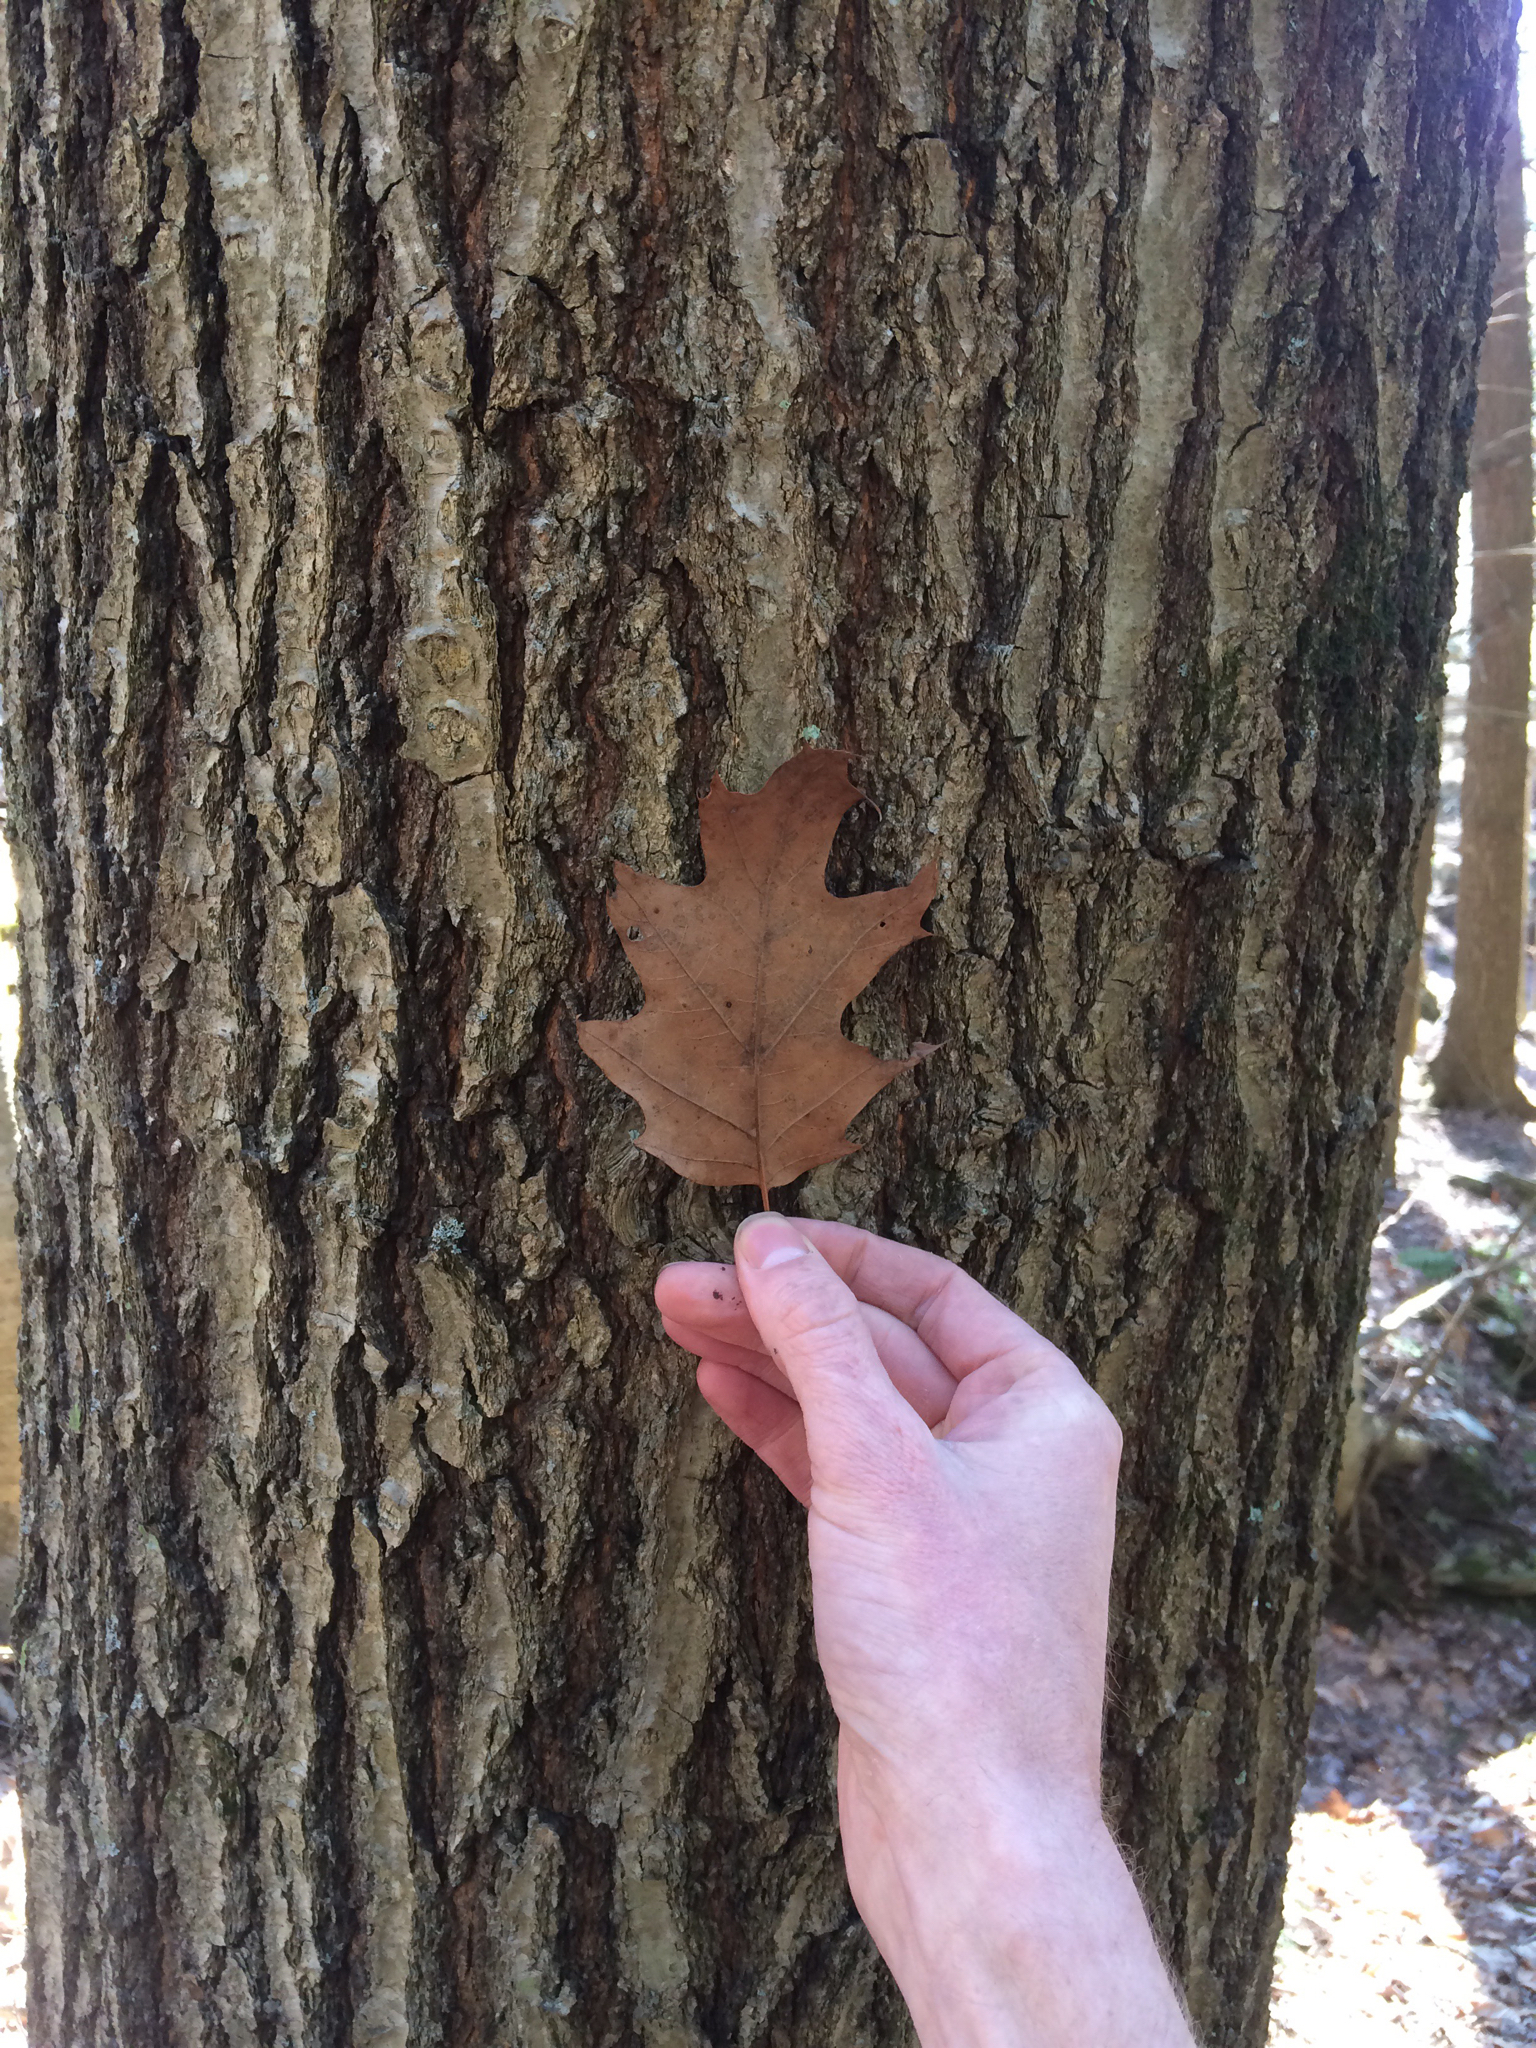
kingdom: Plantae
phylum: Tracheophyta
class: Magnoliopsida
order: Fagales
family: Fagaceae
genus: Quercus
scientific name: Quercus rubra
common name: Red oak
